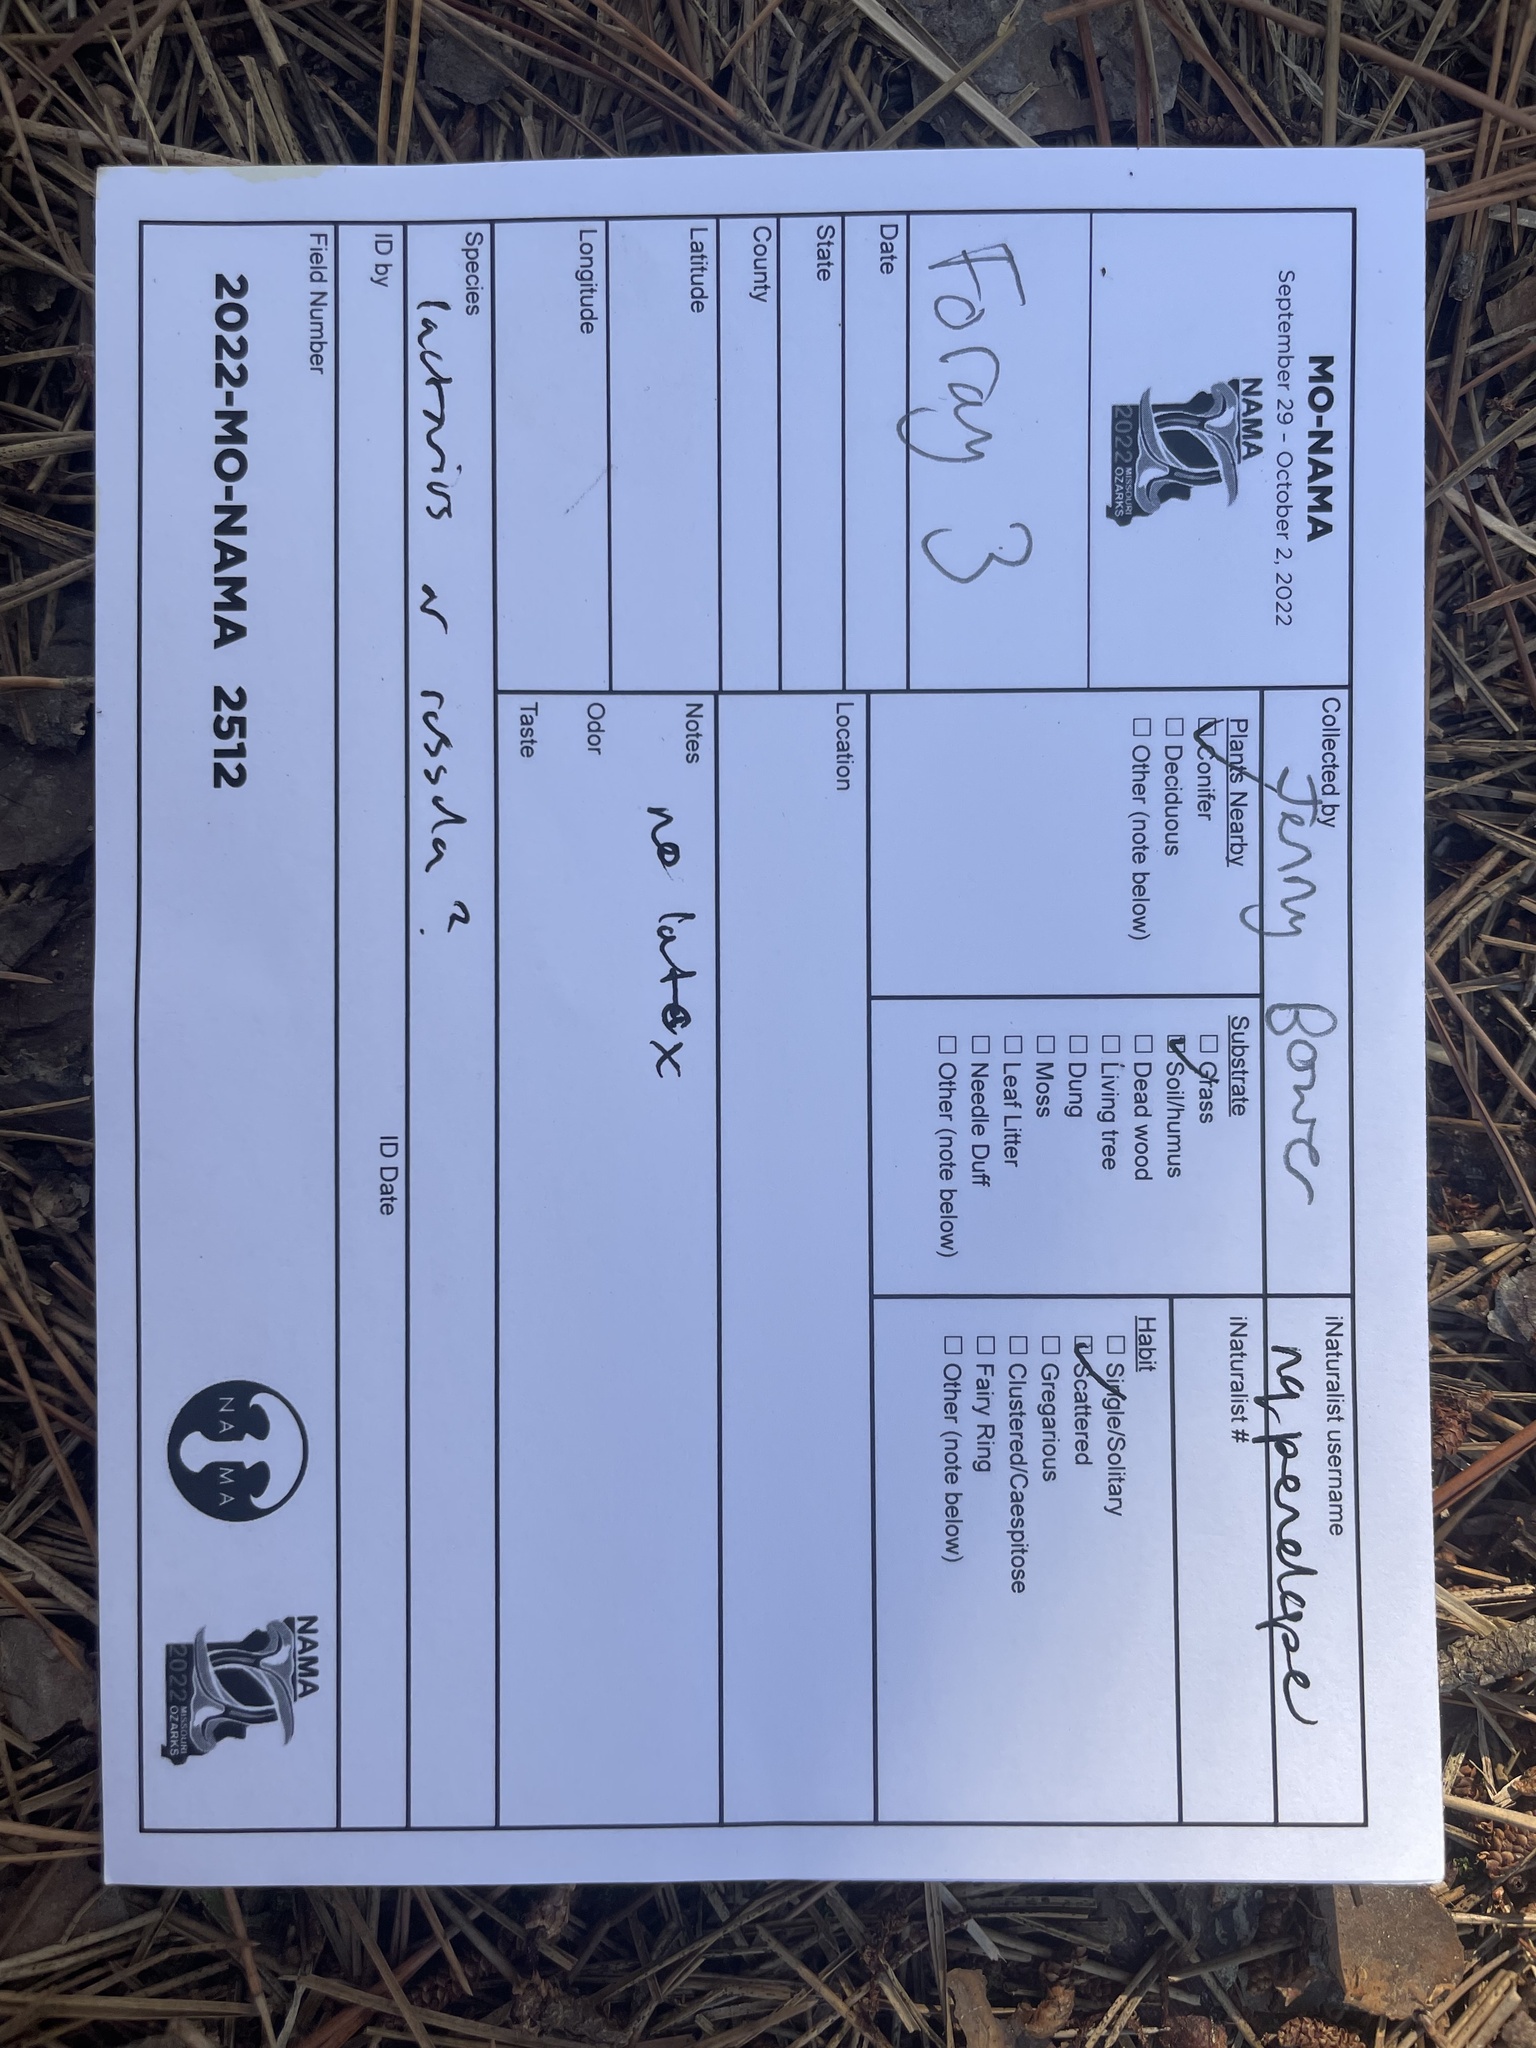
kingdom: Fungi
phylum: Basidiomycota
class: Agaricomycetes
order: Russulales
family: Russulaceae
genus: Russula
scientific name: Russula brevipes
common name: Short-stemmed russula
